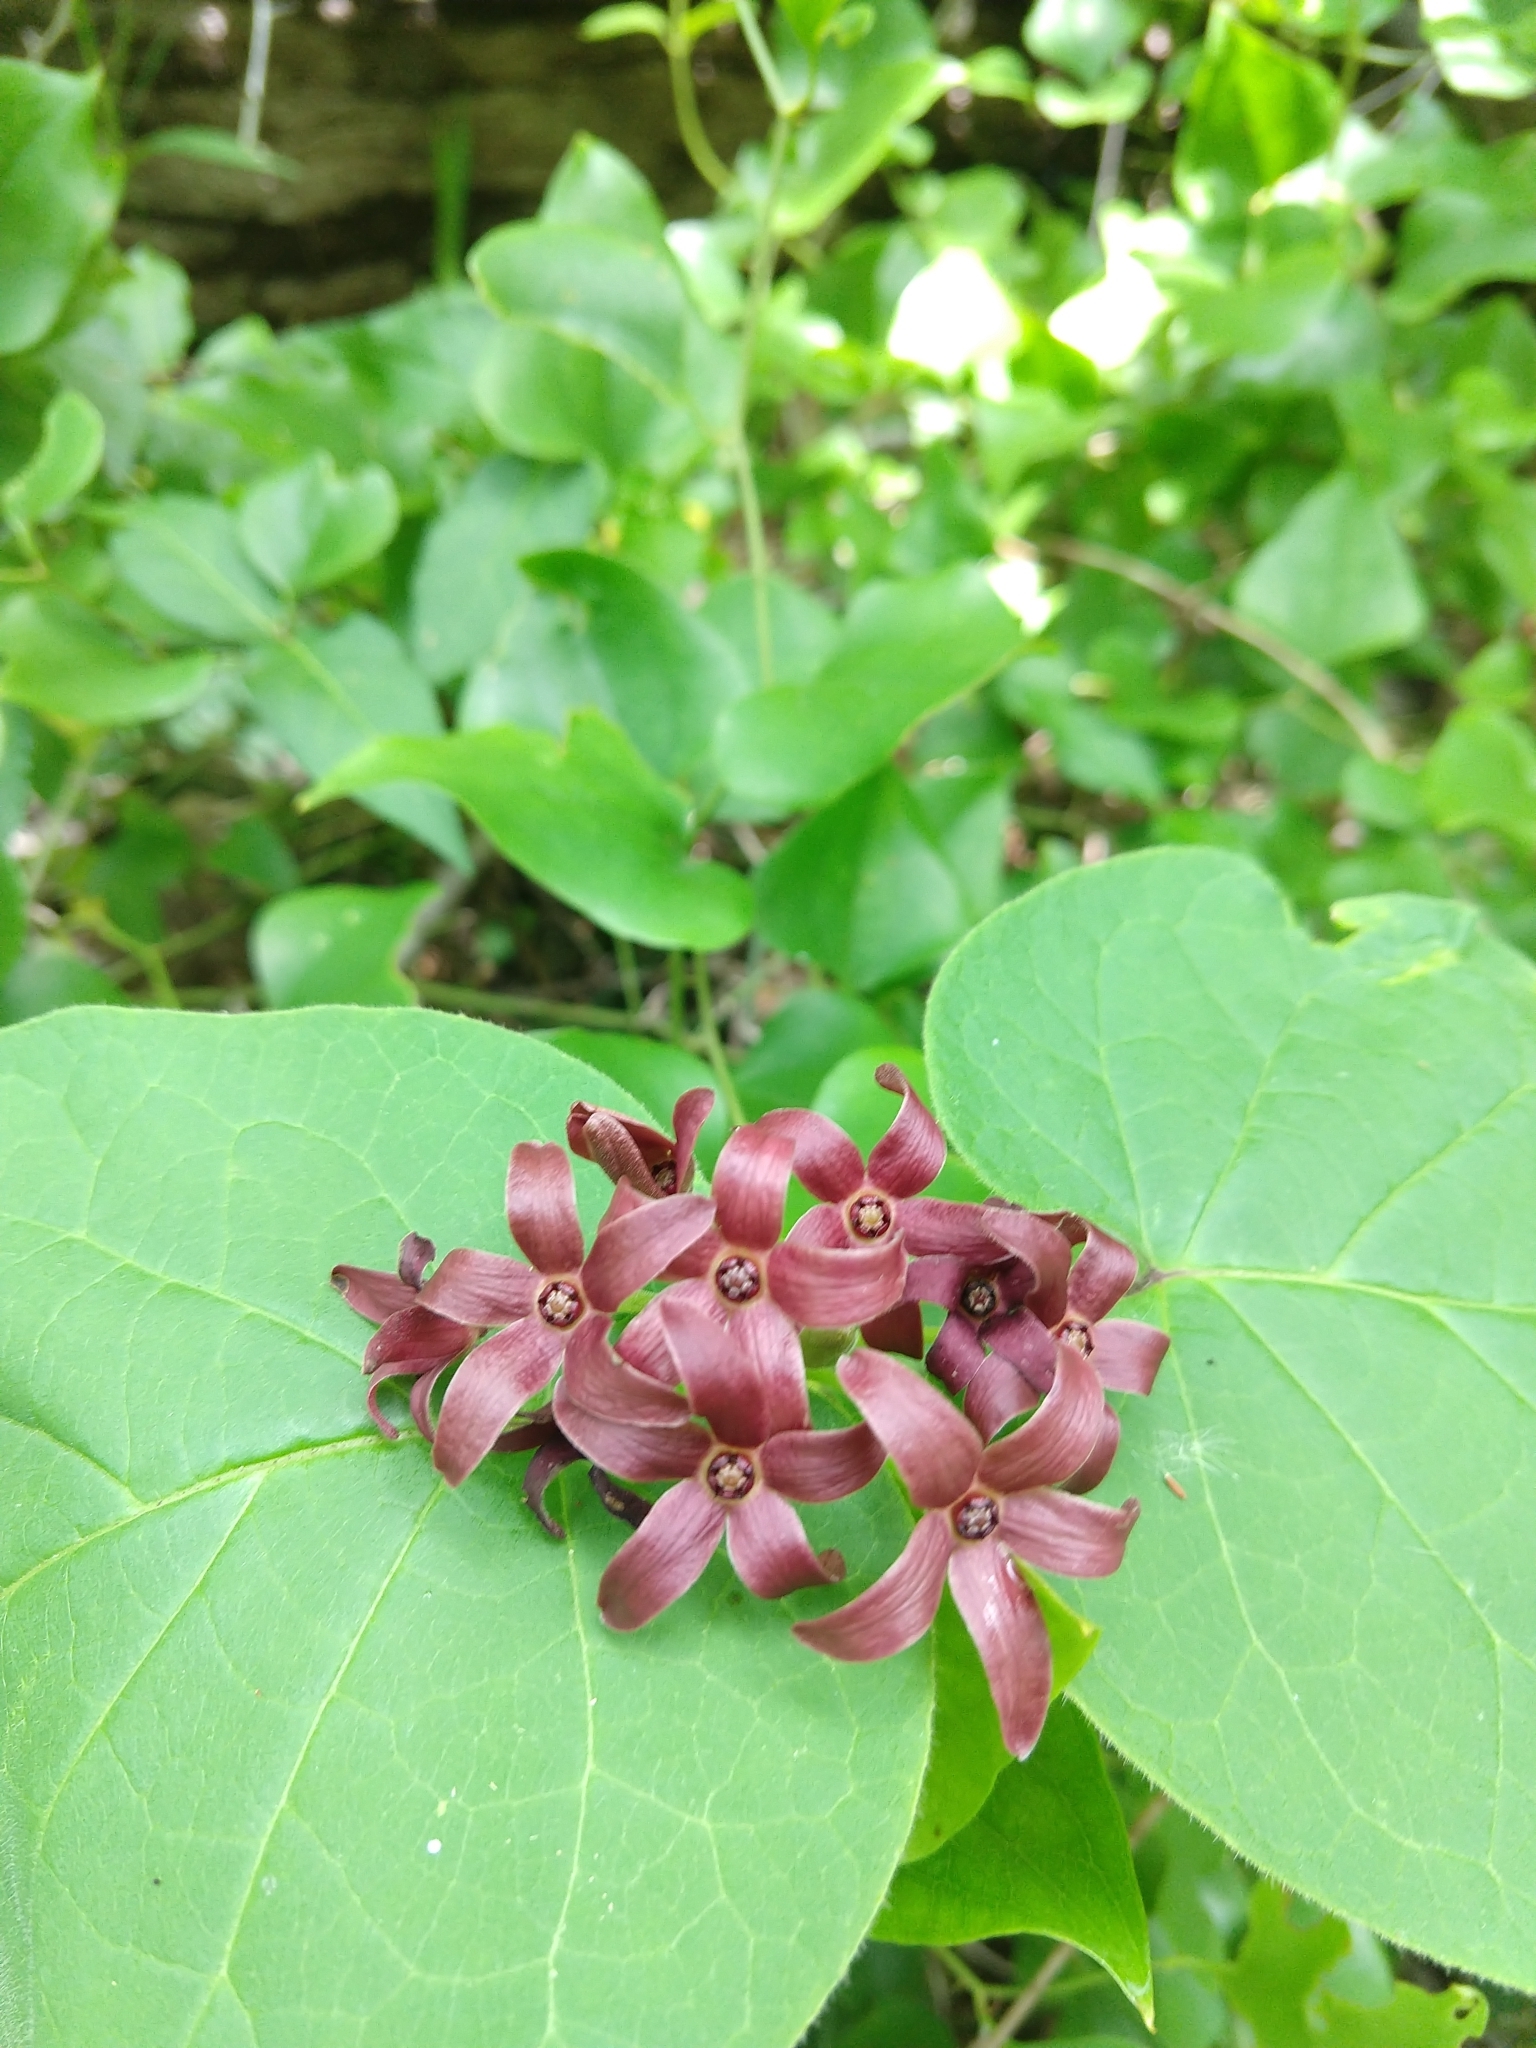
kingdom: Plantae
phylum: Tracheophyta
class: Magnoliopsida
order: Gentianales
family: Apocynaceae
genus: Matelea
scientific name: Matelea carolinensis
